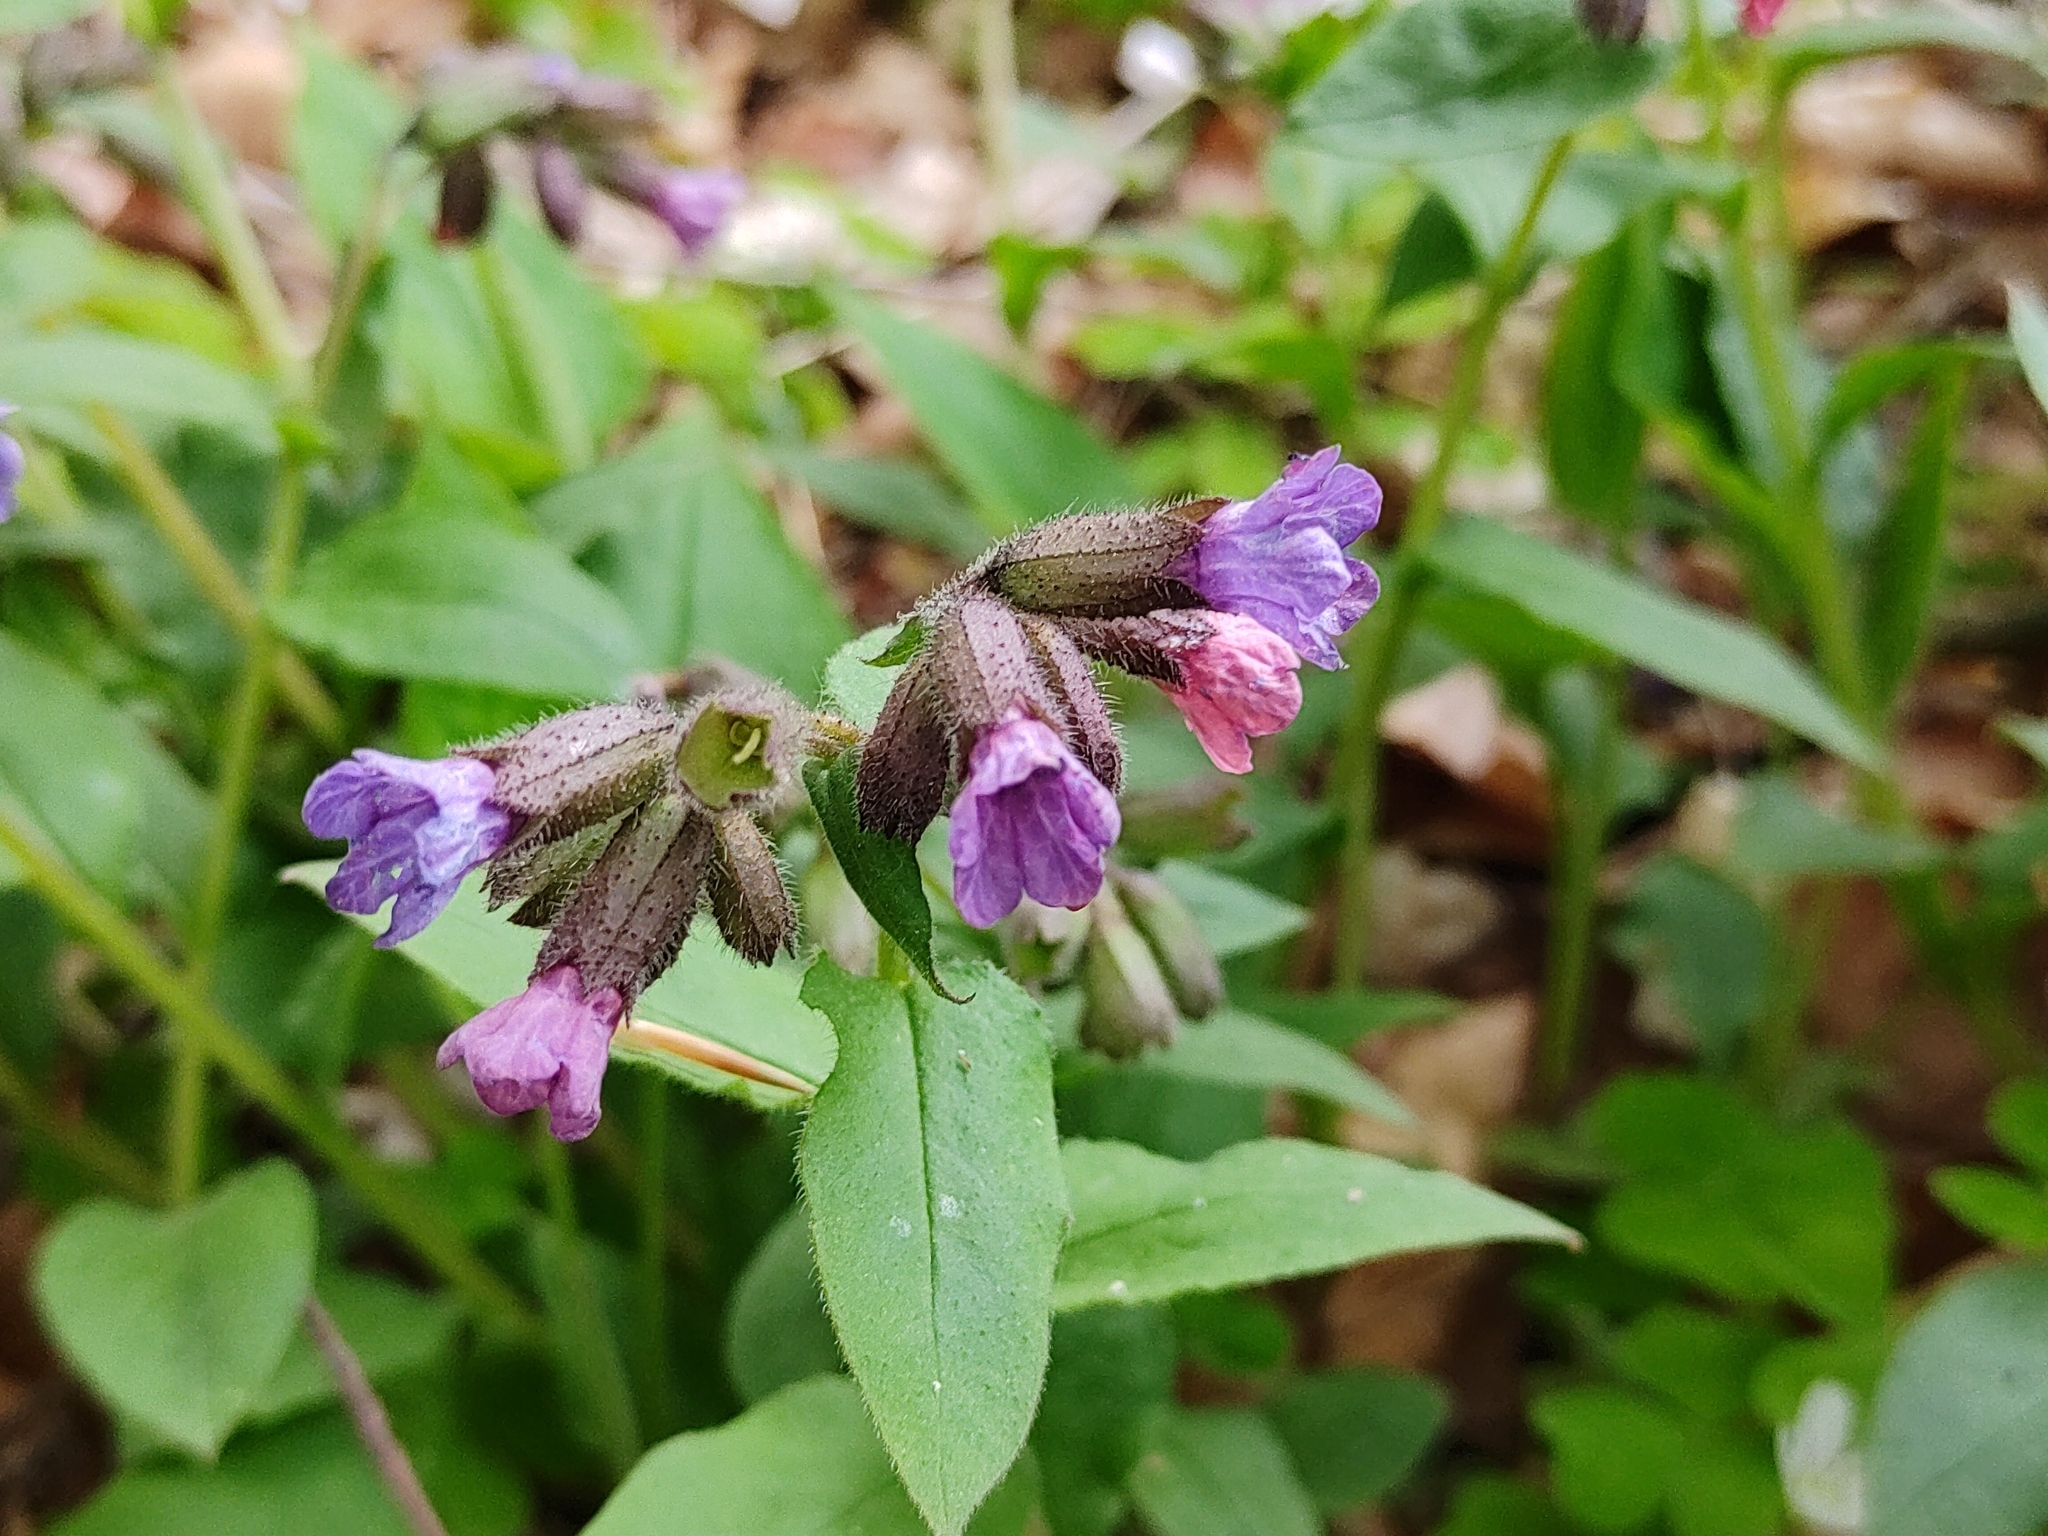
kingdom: Plantae
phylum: Tracheophyta
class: Magnoliopsida
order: Boraginales
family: Boraginaceae
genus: Pulmonaria
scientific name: Pulmonaria obscura
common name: Suffolk lungwort
